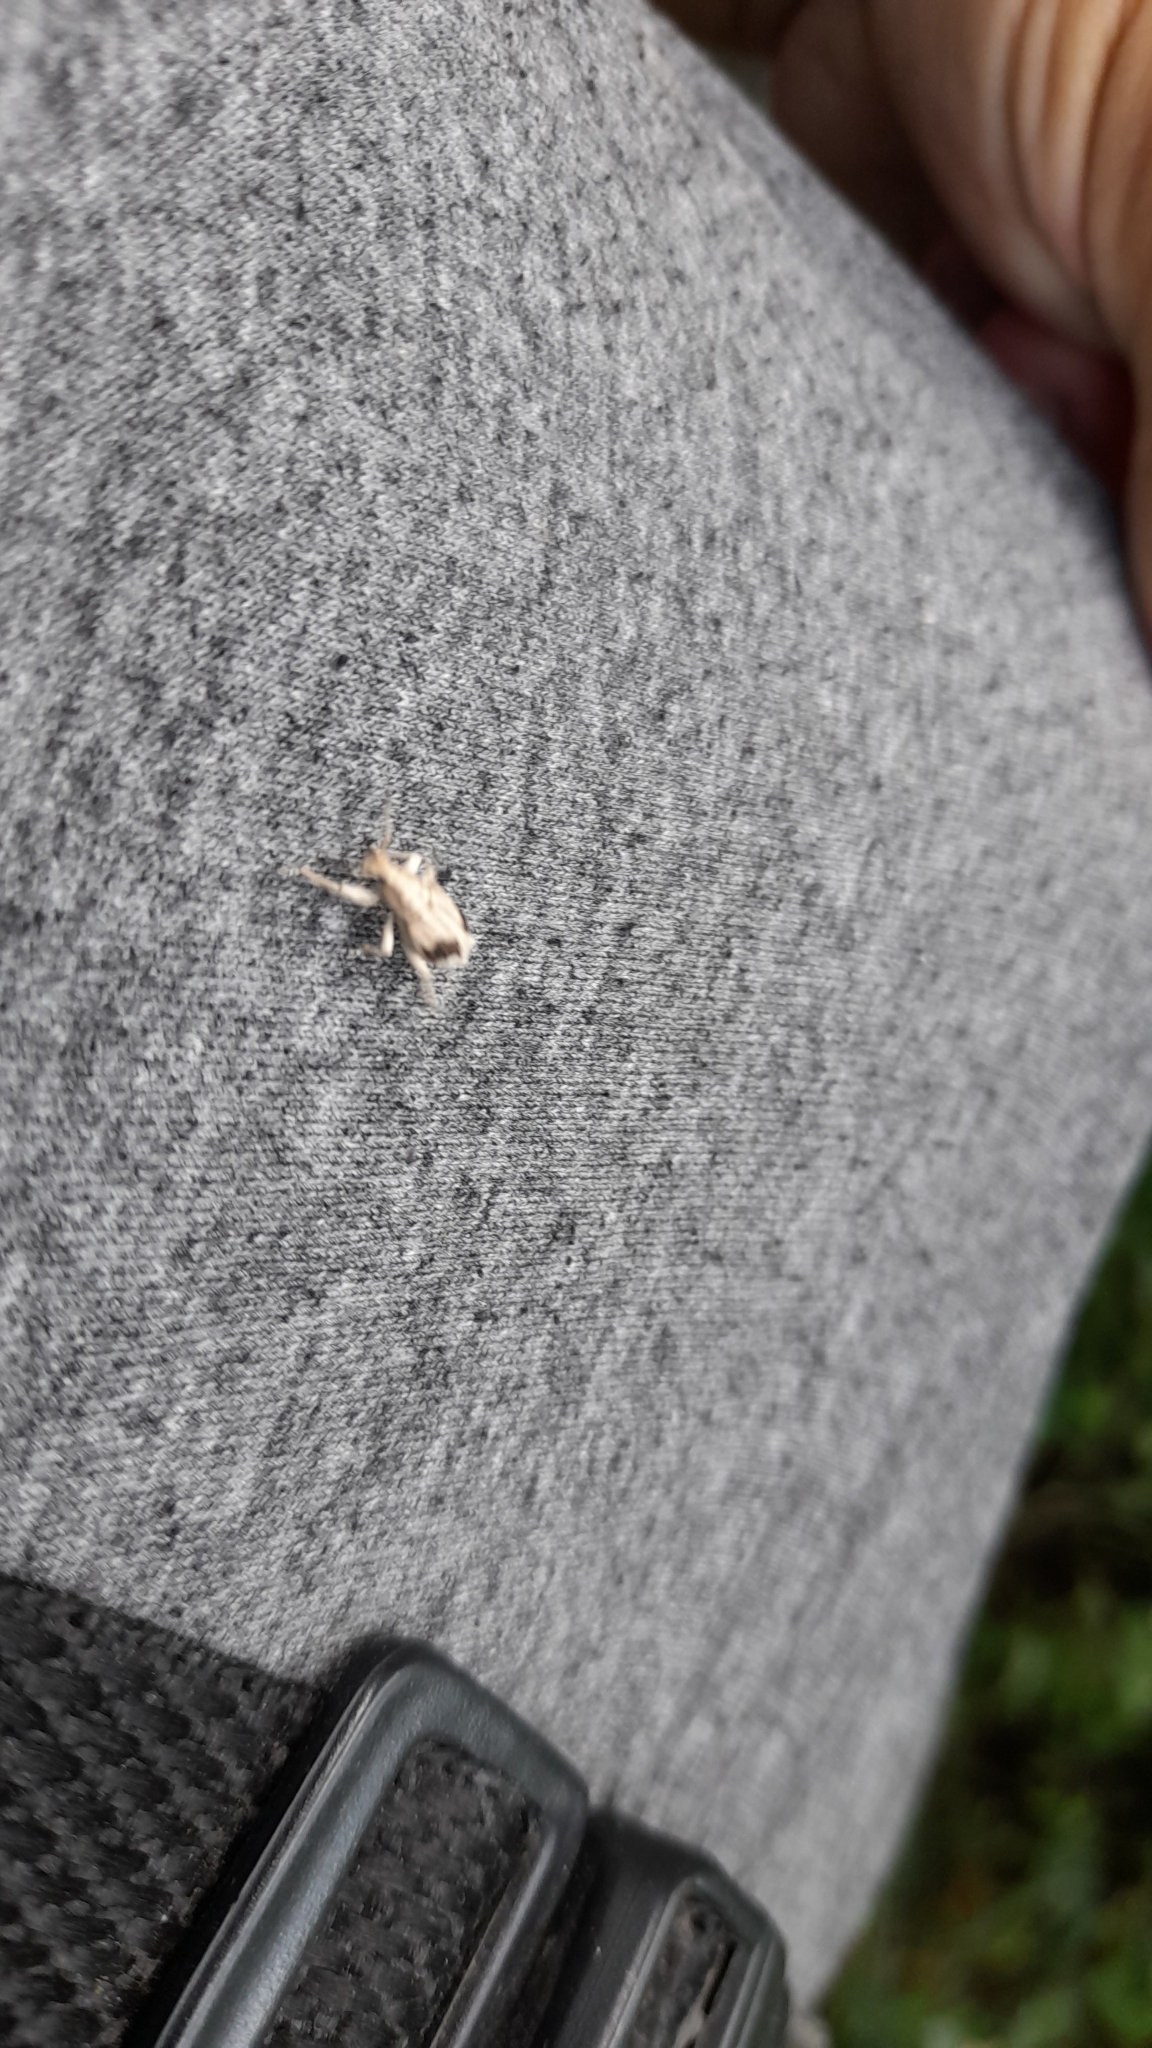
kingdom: Animalia
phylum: Arthropoda
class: Insecta
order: Coleoptera
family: Curculionidae
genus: Compsus
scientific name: Compsus
